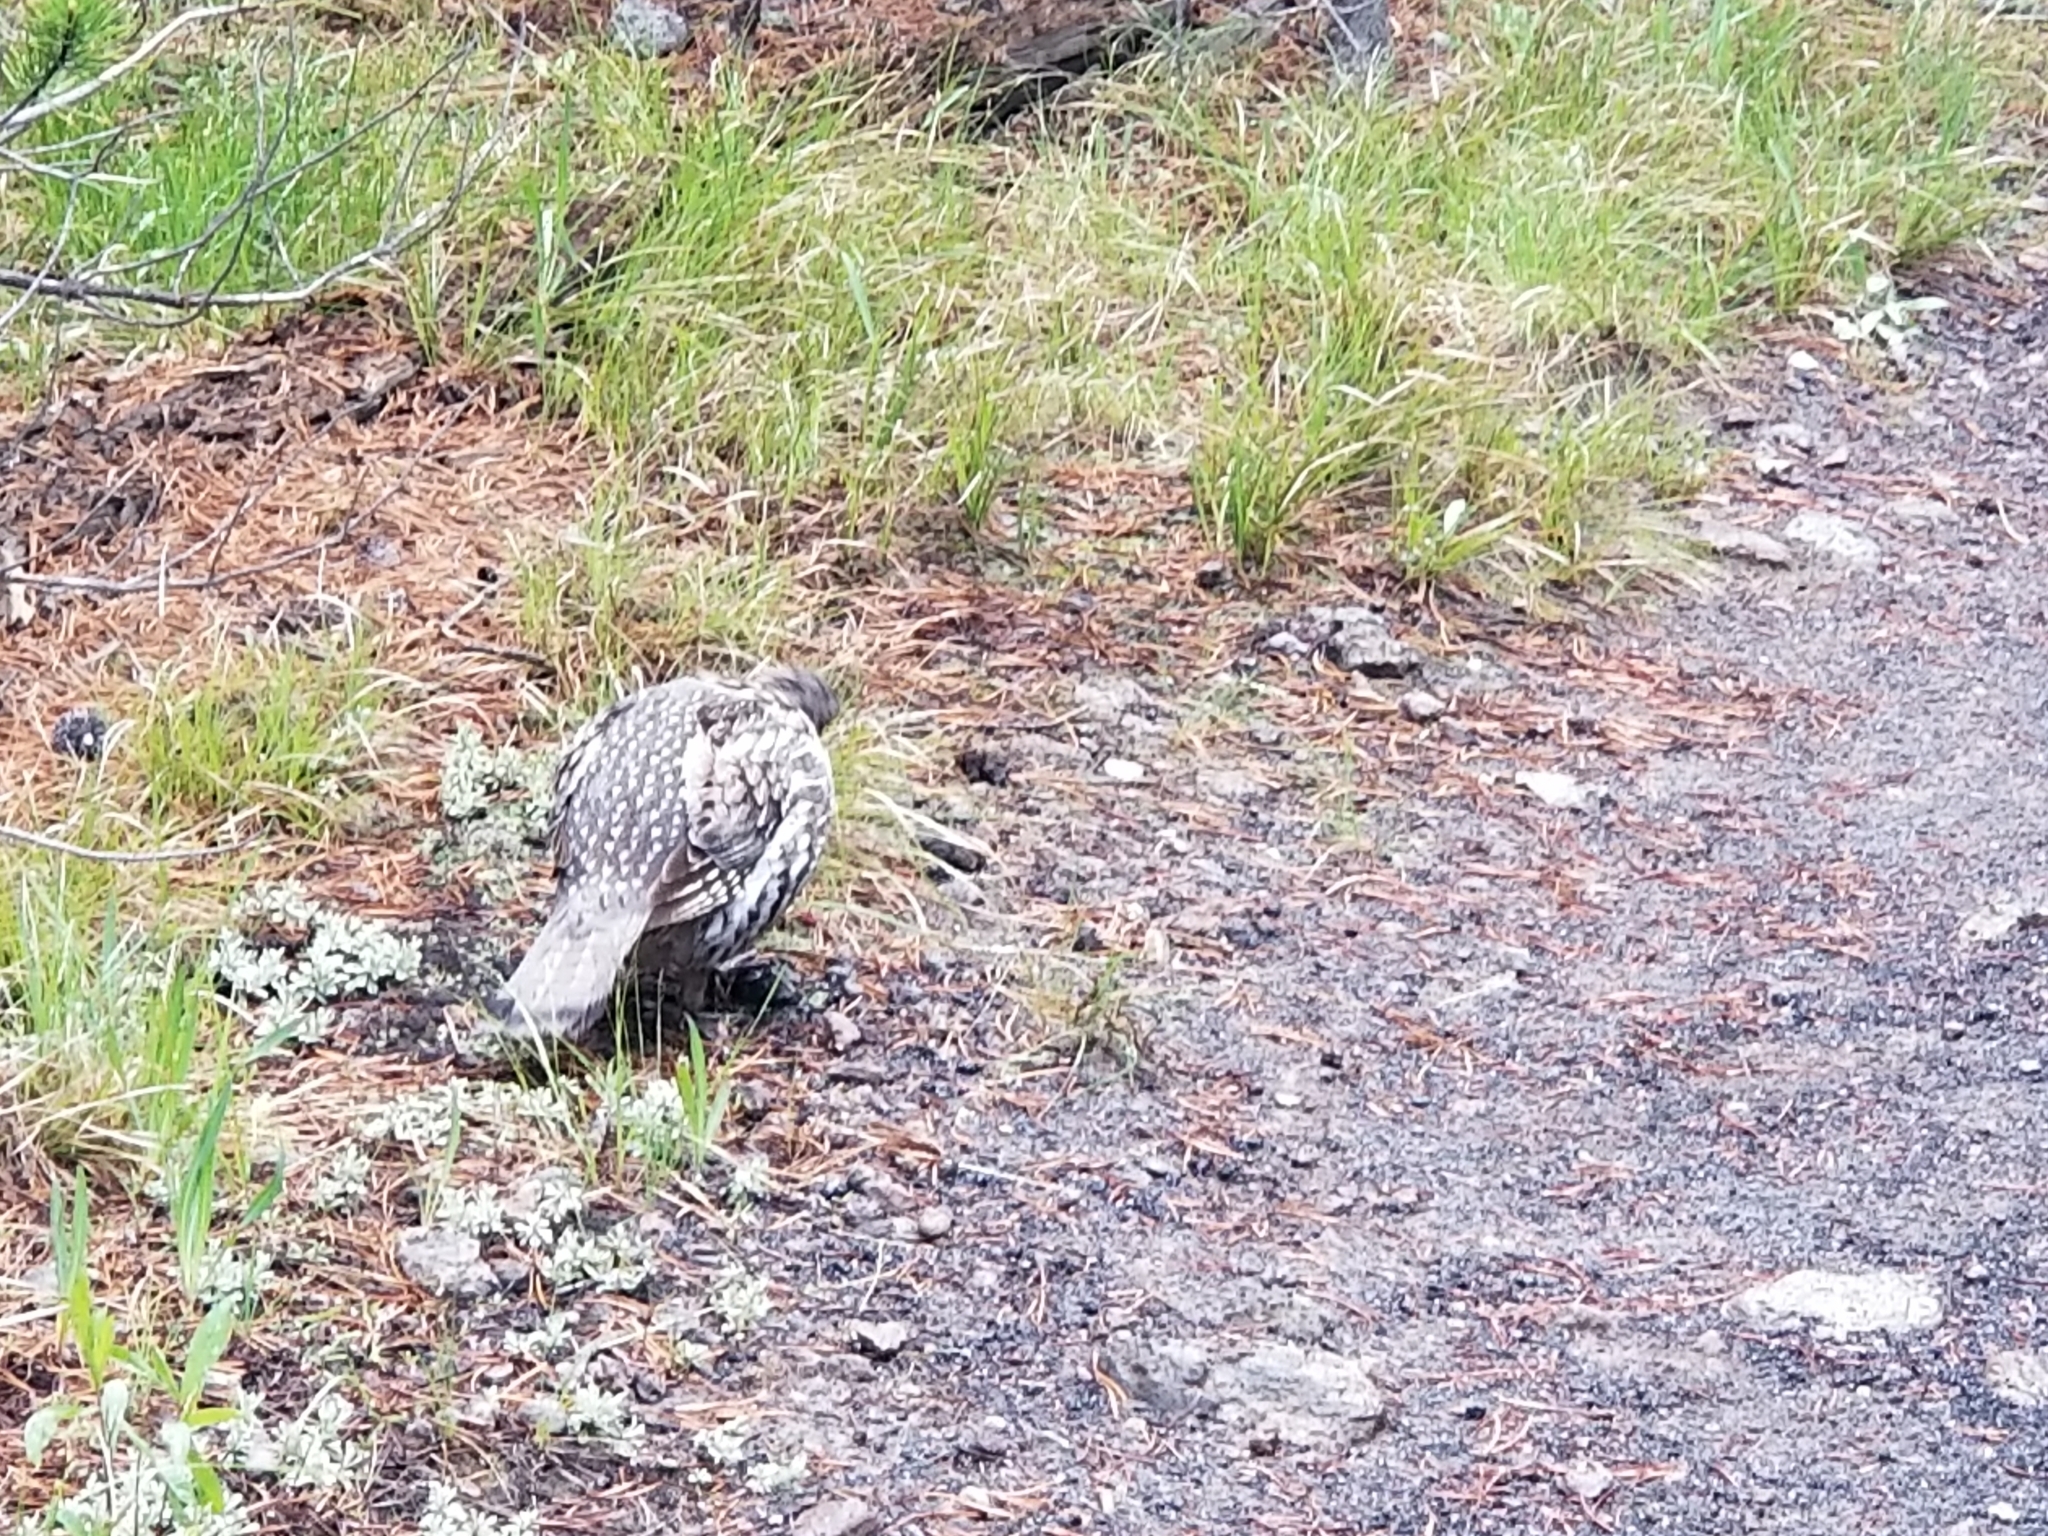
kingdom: Animalia
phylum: Chordata
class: Aves
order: Galliformes
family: Phasianidae
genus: Bonasa
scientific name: Bonasa umbellus
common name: Ruffed grouse
